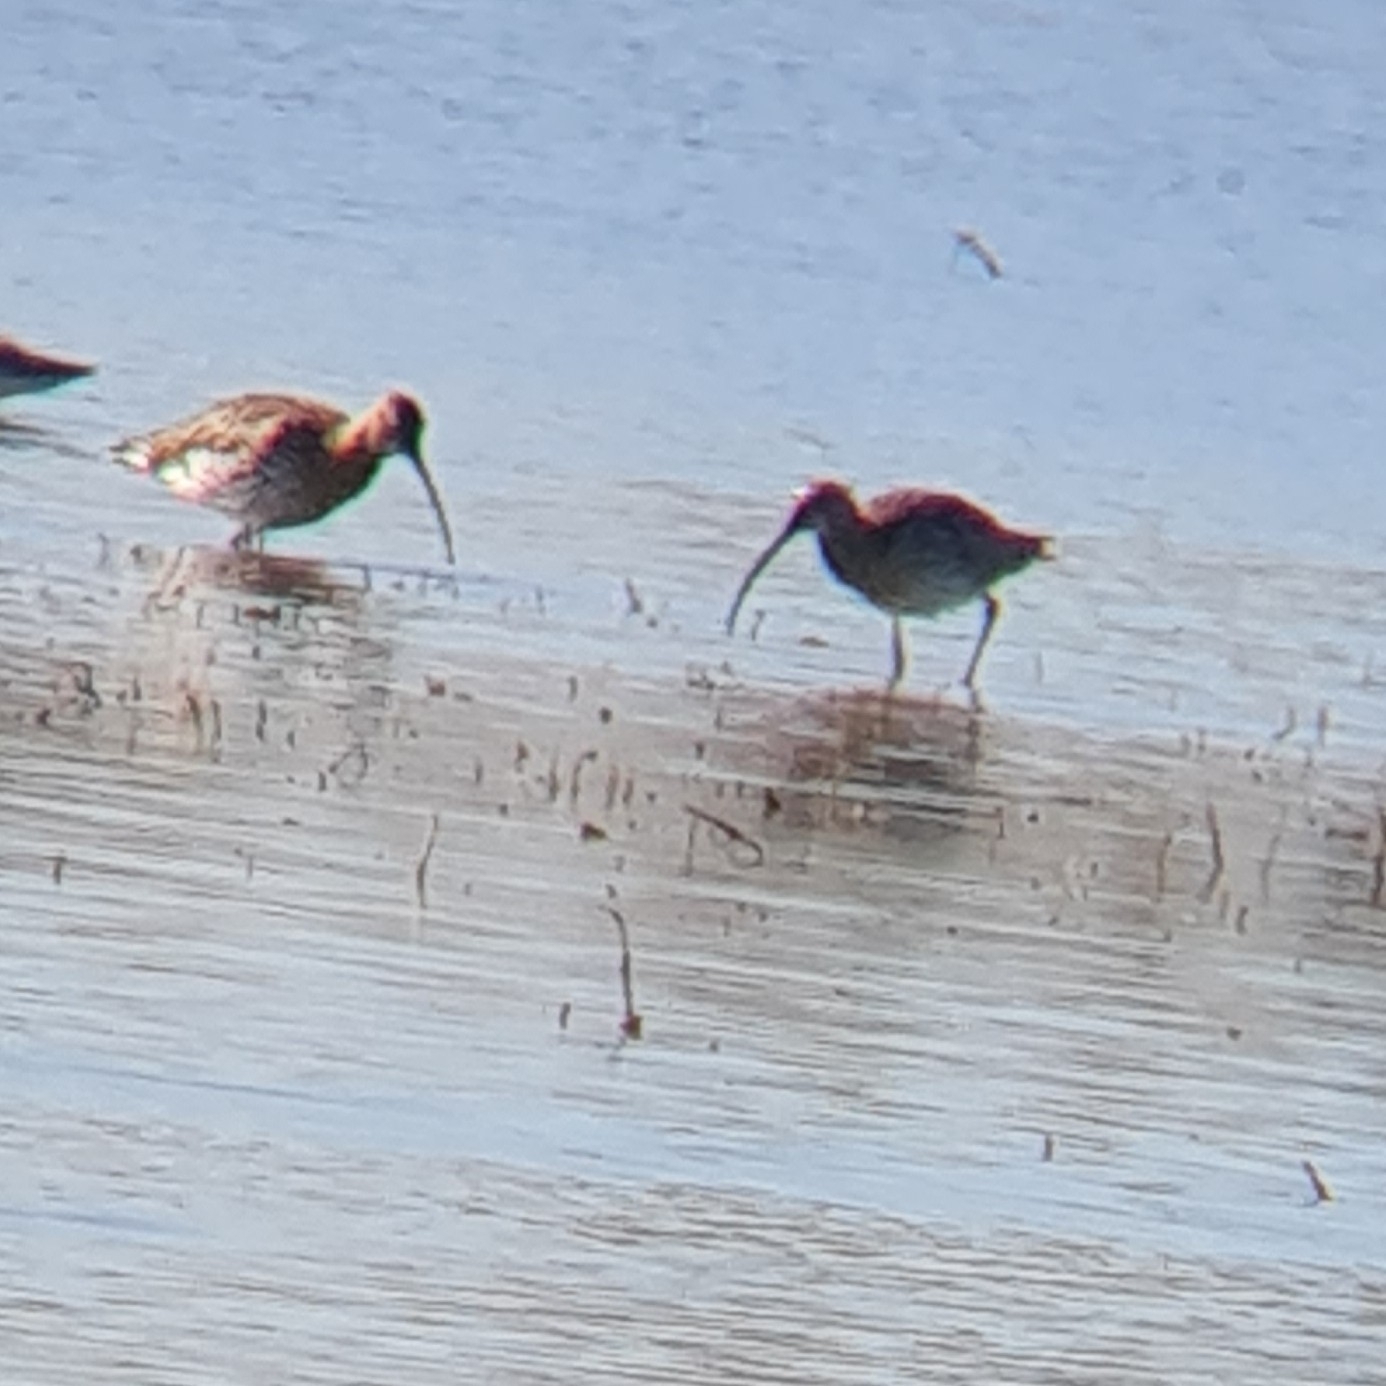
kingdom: Animalia
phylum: Chordata
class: Aves
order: Charadriiformes
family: Scolopacidae
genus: Numenius
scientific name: Numenius arquata
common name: Eurasian curlew
